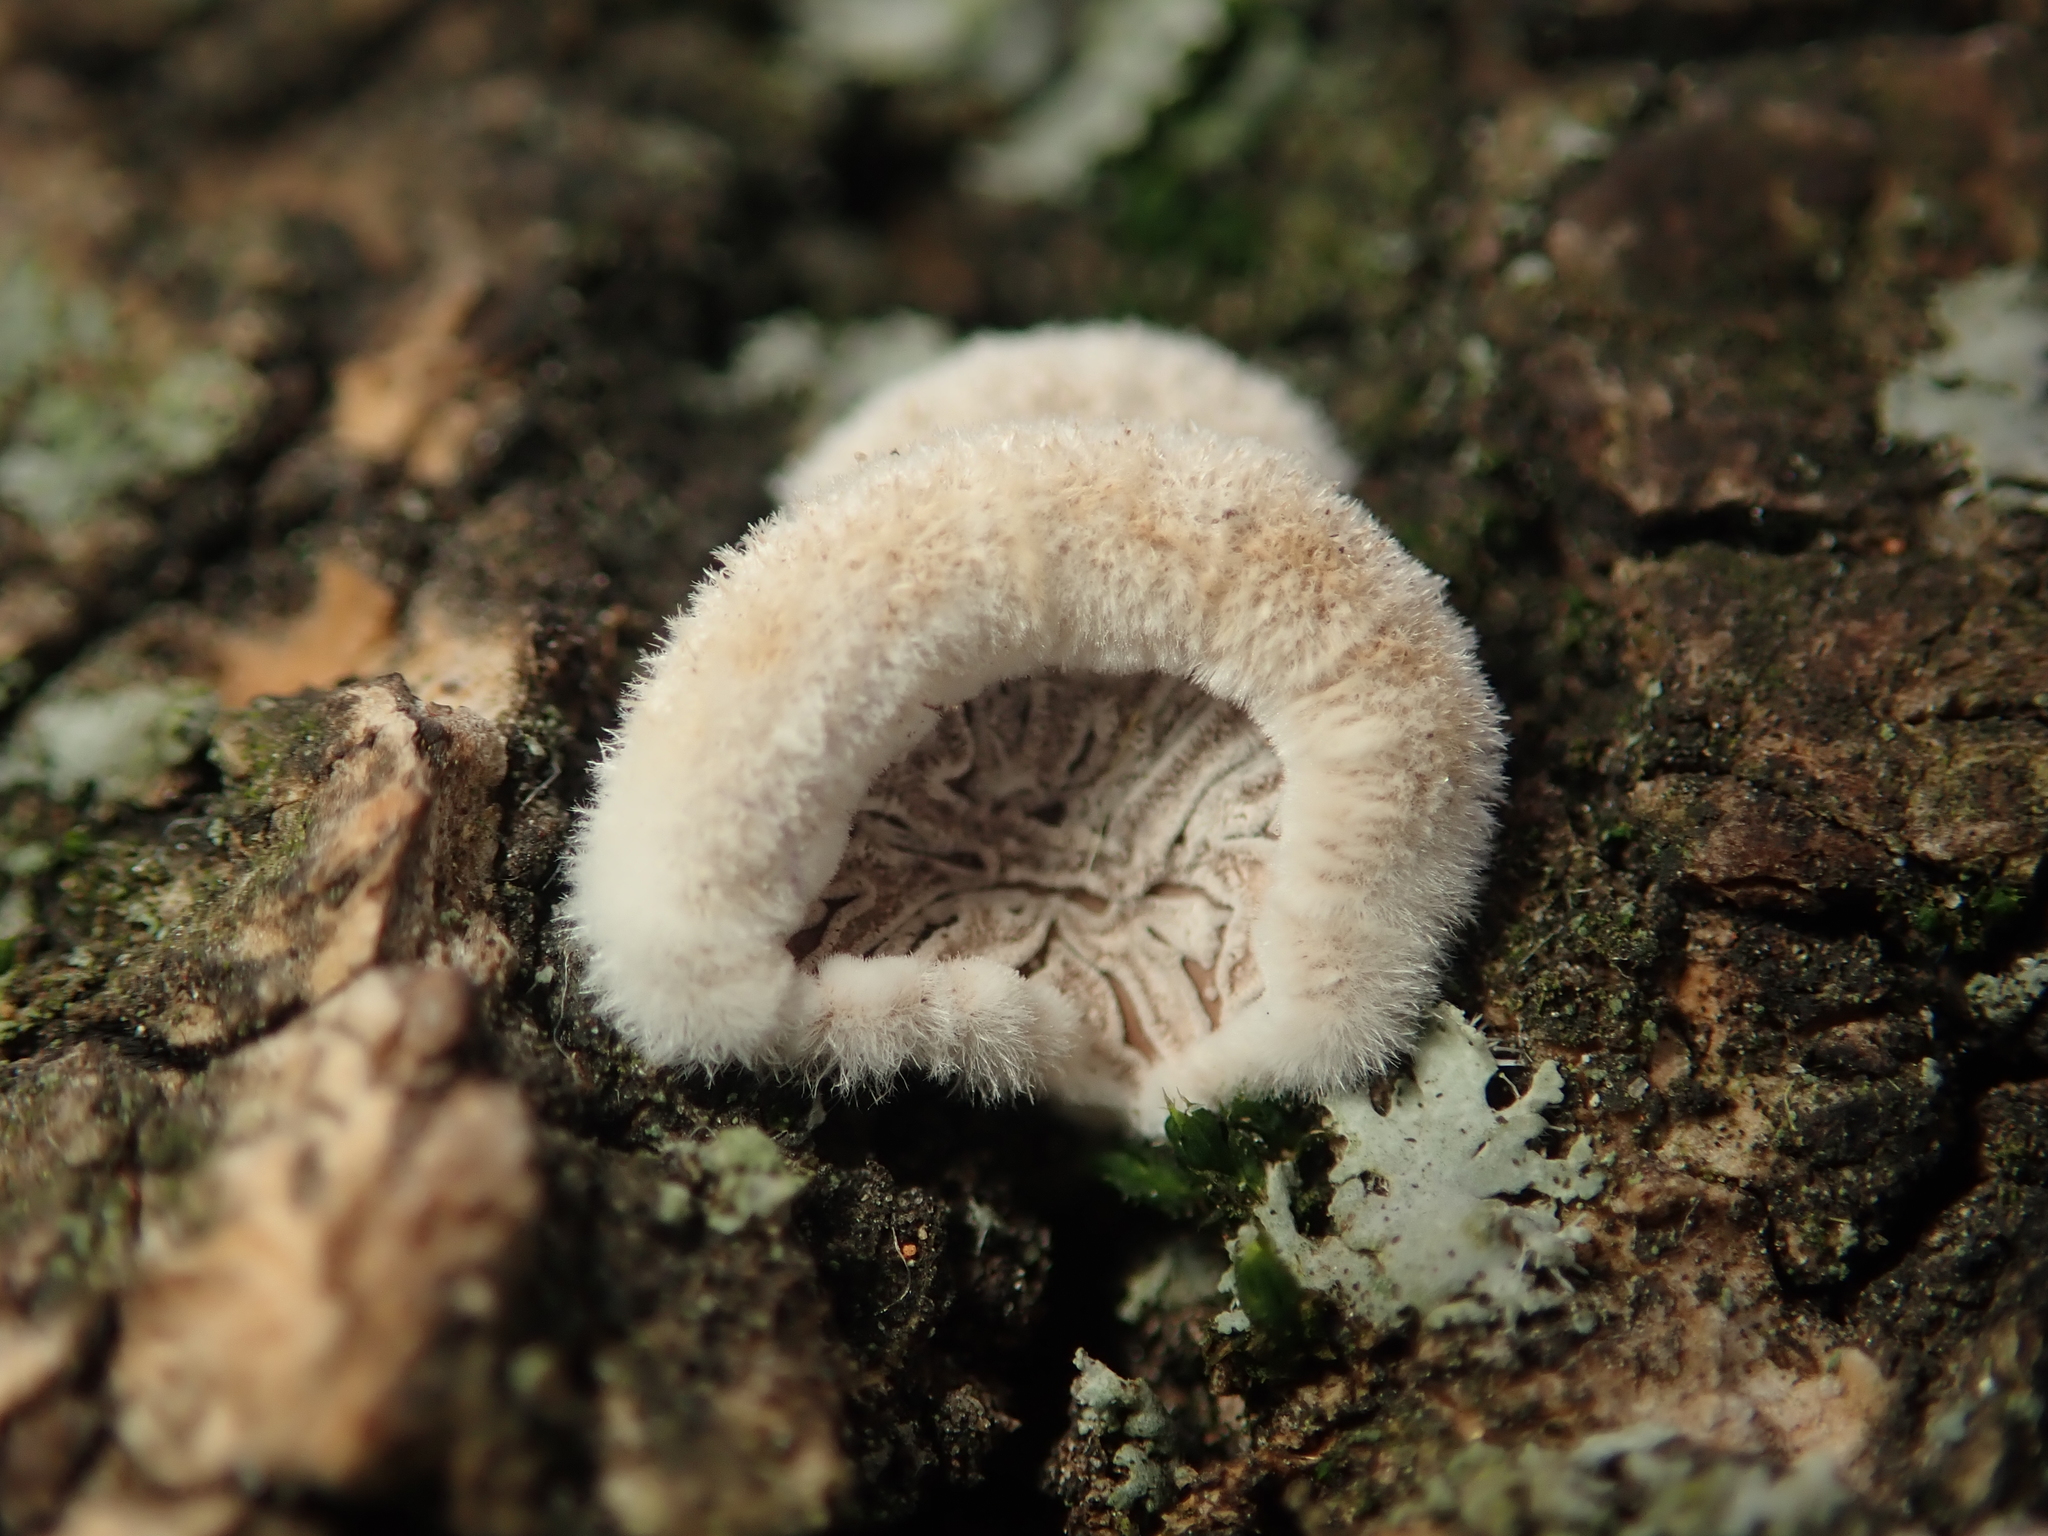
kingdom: Fungi
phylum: Basidiomycota
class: Agaricomycetes
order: Agaricales
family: Schizophyllaceae
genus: Schizophyllum
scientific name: Schizophyllum commune
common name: Common porecrust
